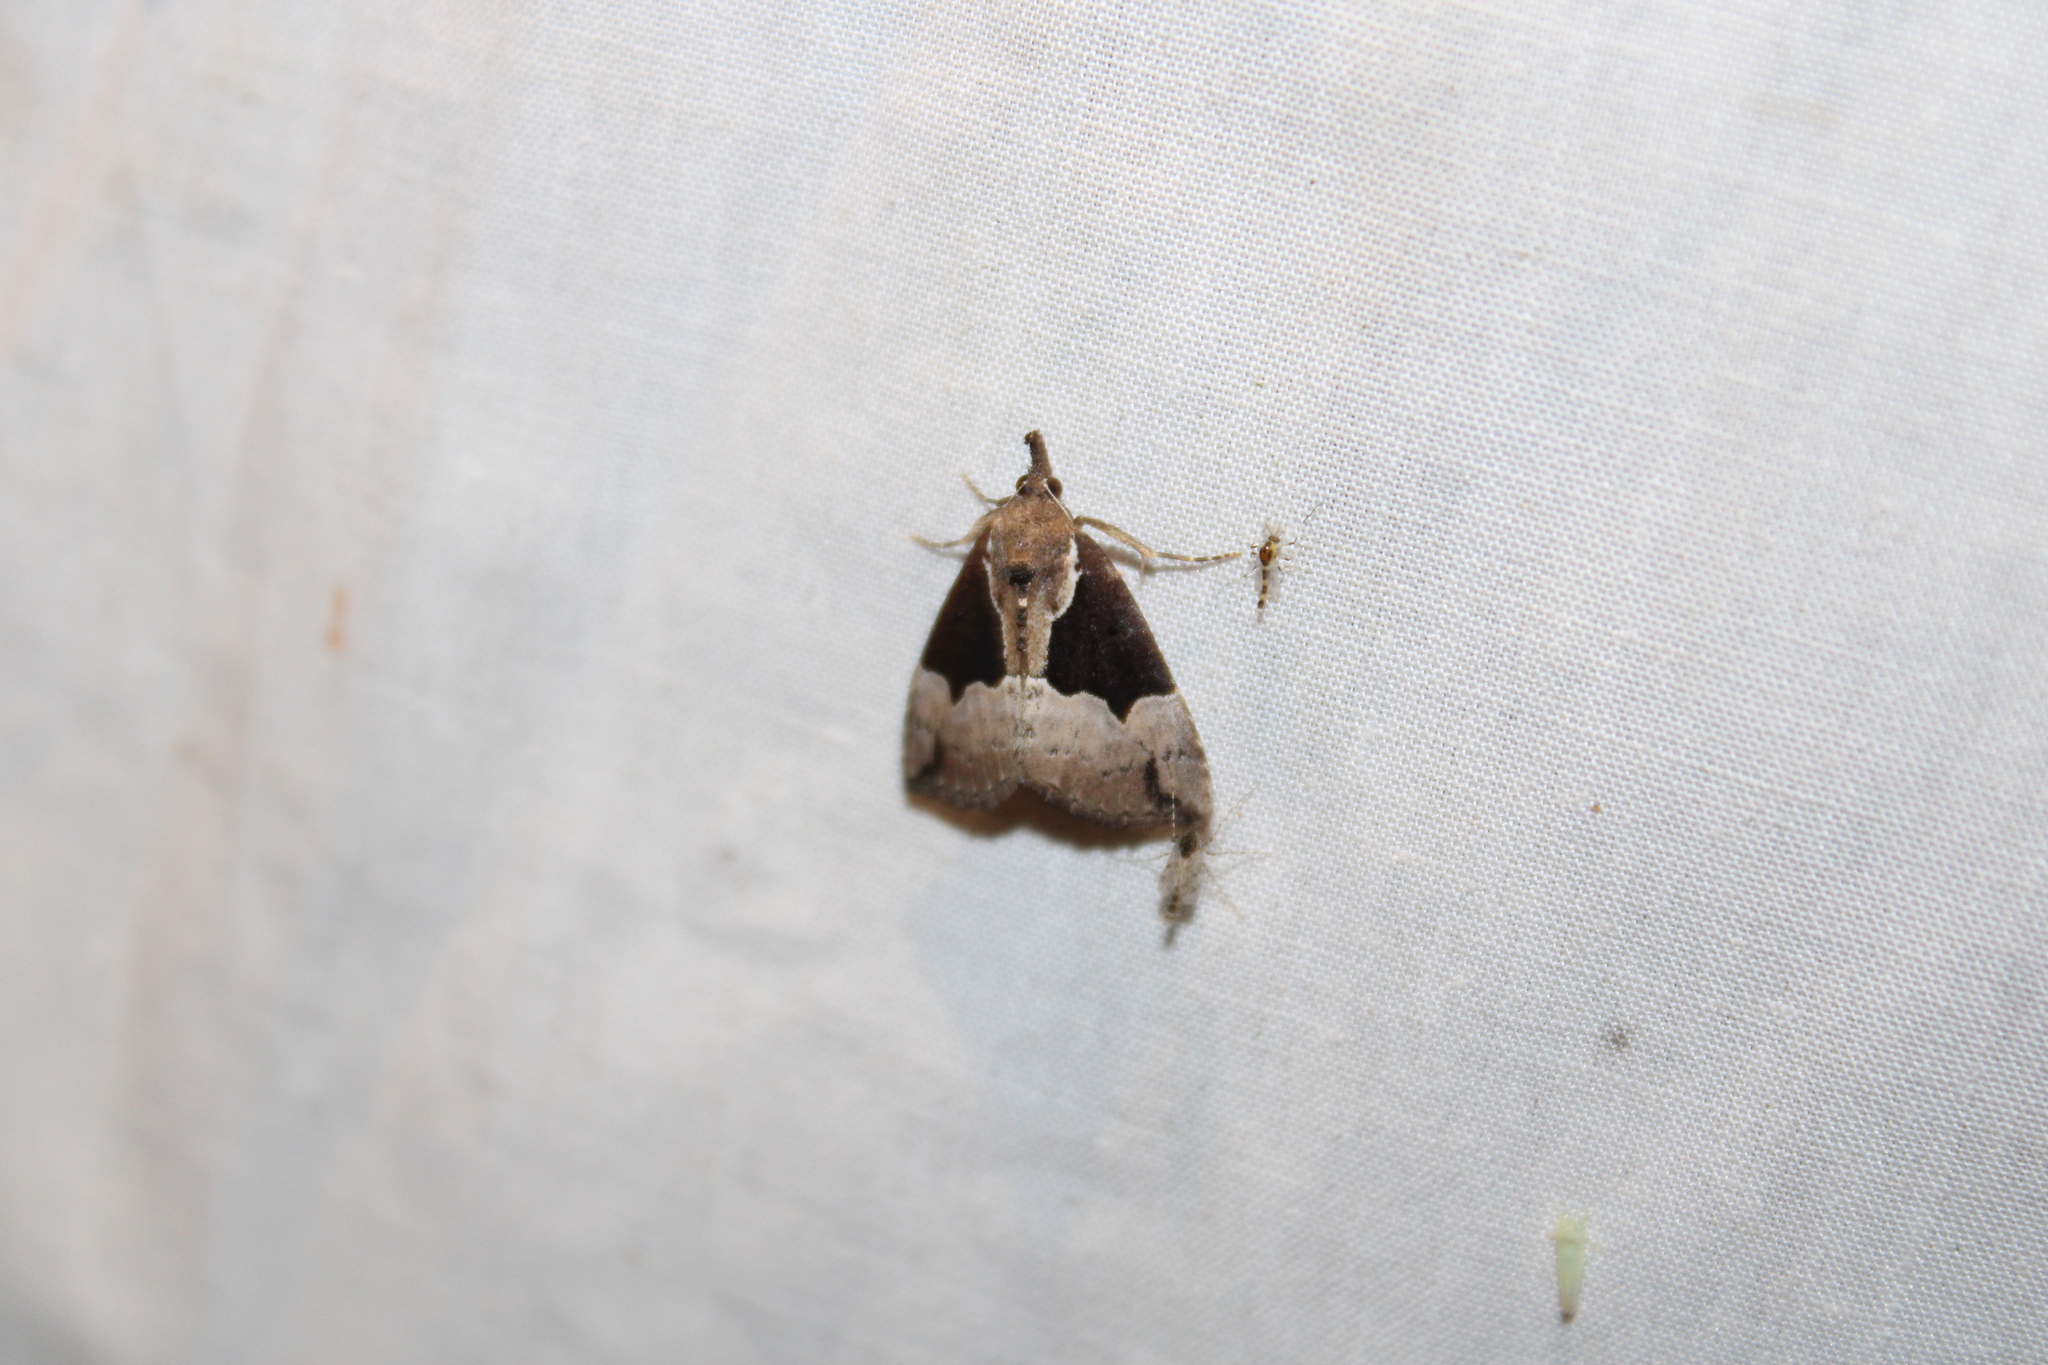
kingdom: Animalia
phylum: Arthropoda
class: Insecta
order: Lepidoptera
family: Erebidae
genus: Hypena
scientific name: Hypena bijugalis
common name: Dimorphic bomolocha moth
